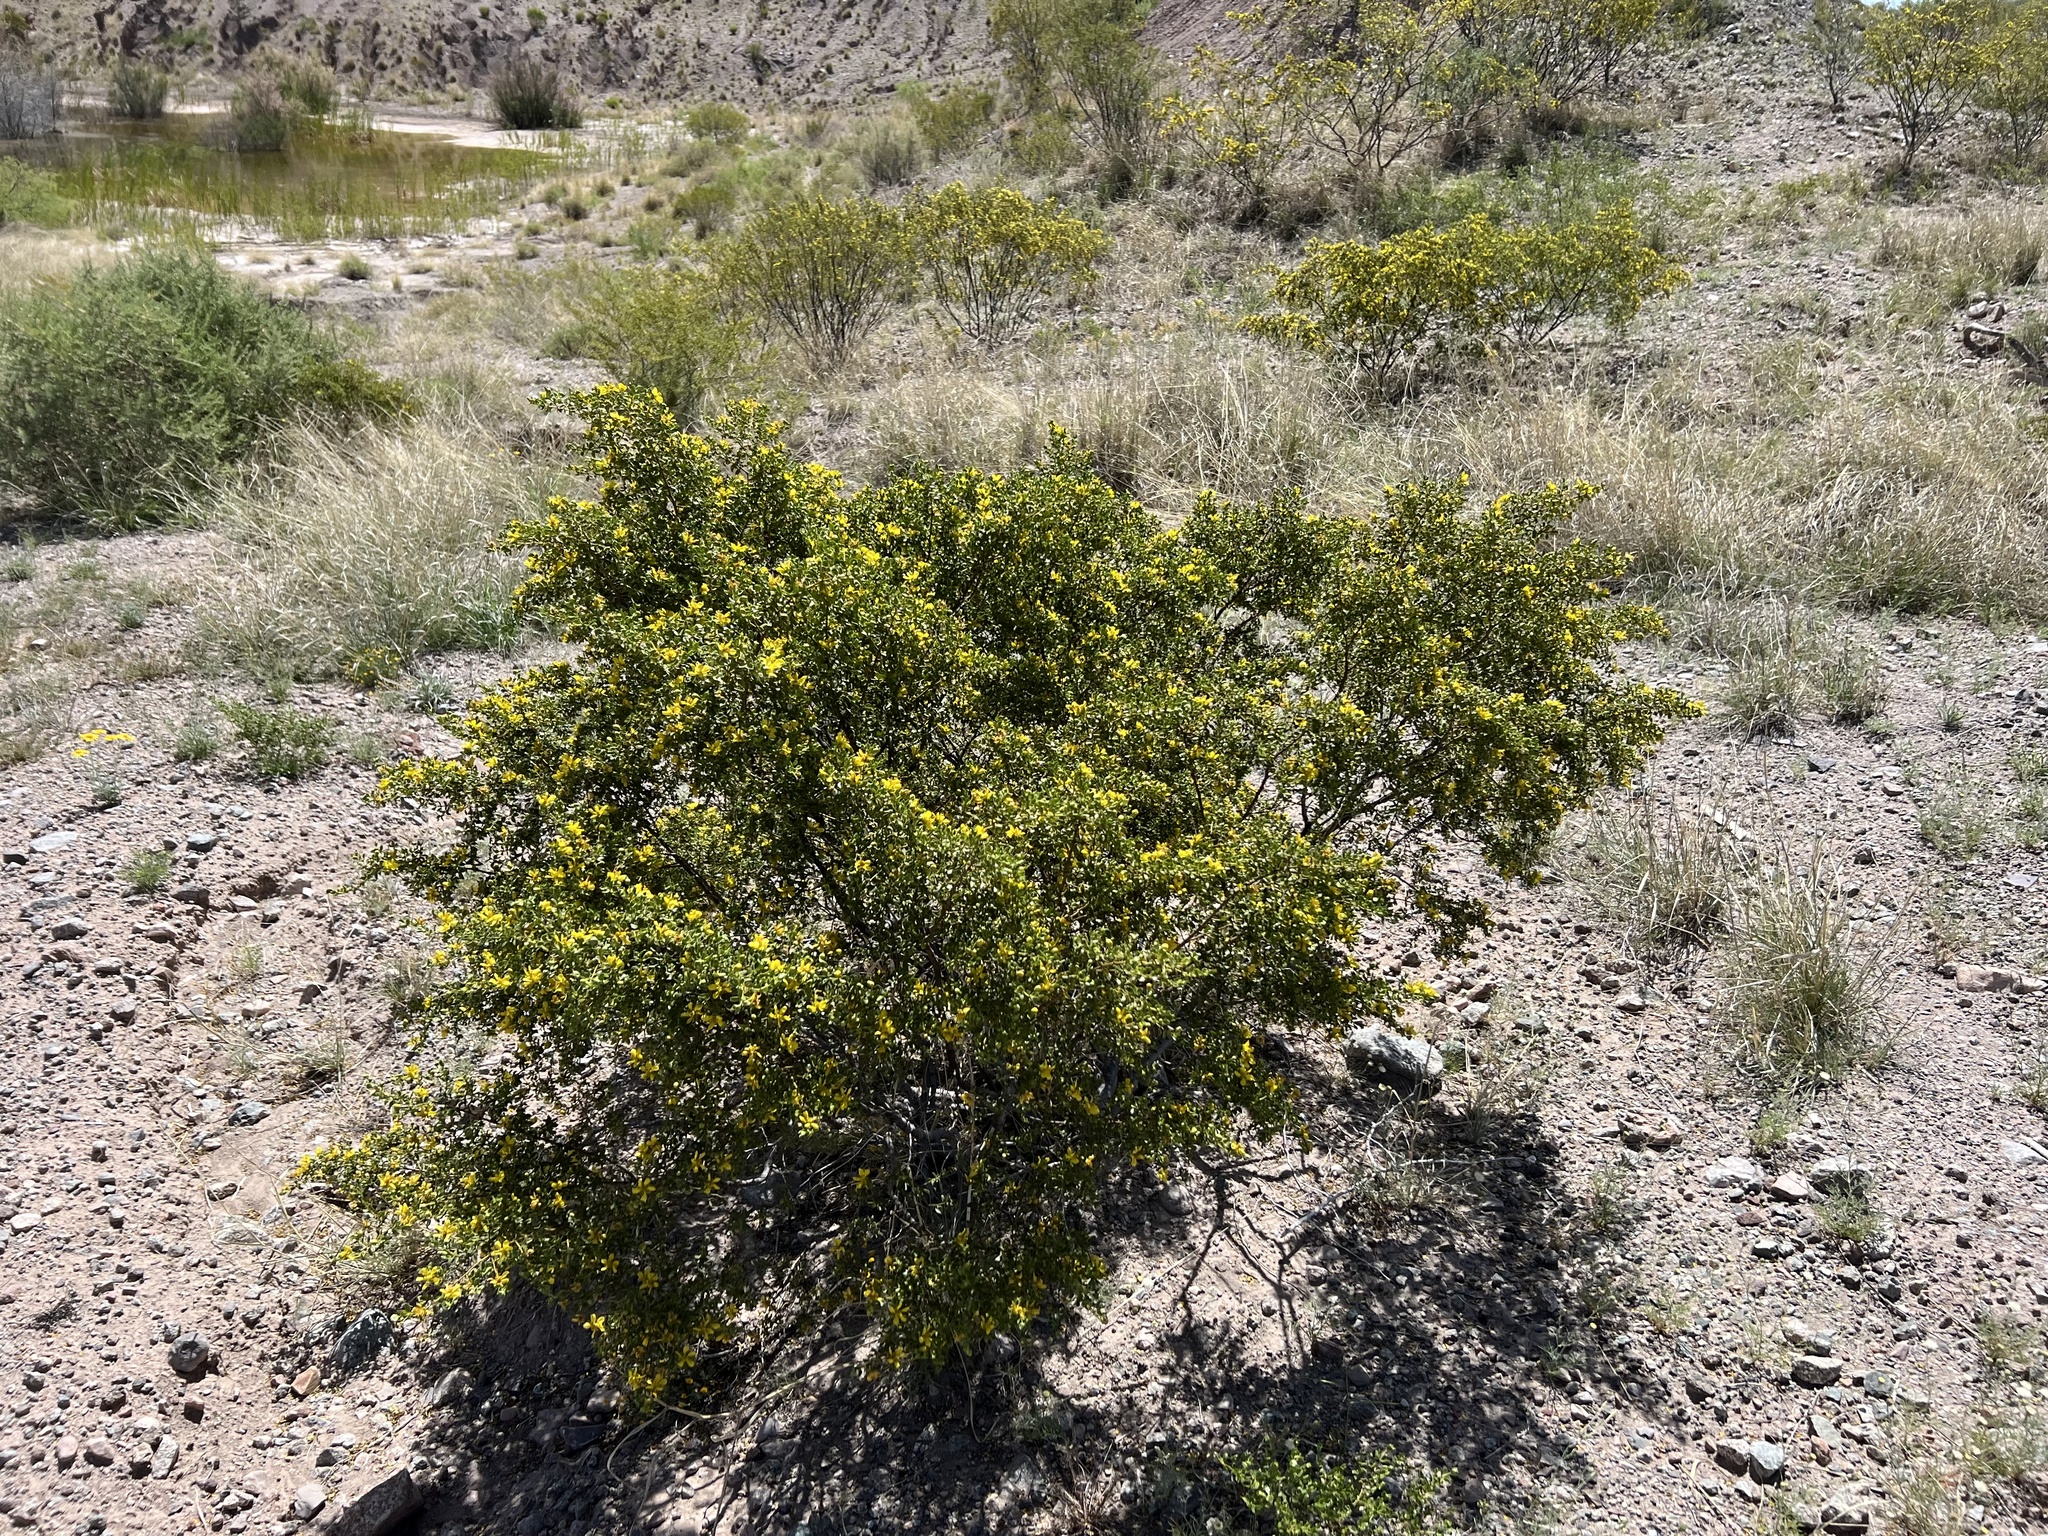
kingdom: Plantae
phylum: Tracheophyta
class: Magnoliopsida
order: Zygophyllales
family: Zygophyllaceae
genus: Larrea
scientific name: Larrea tridentata
